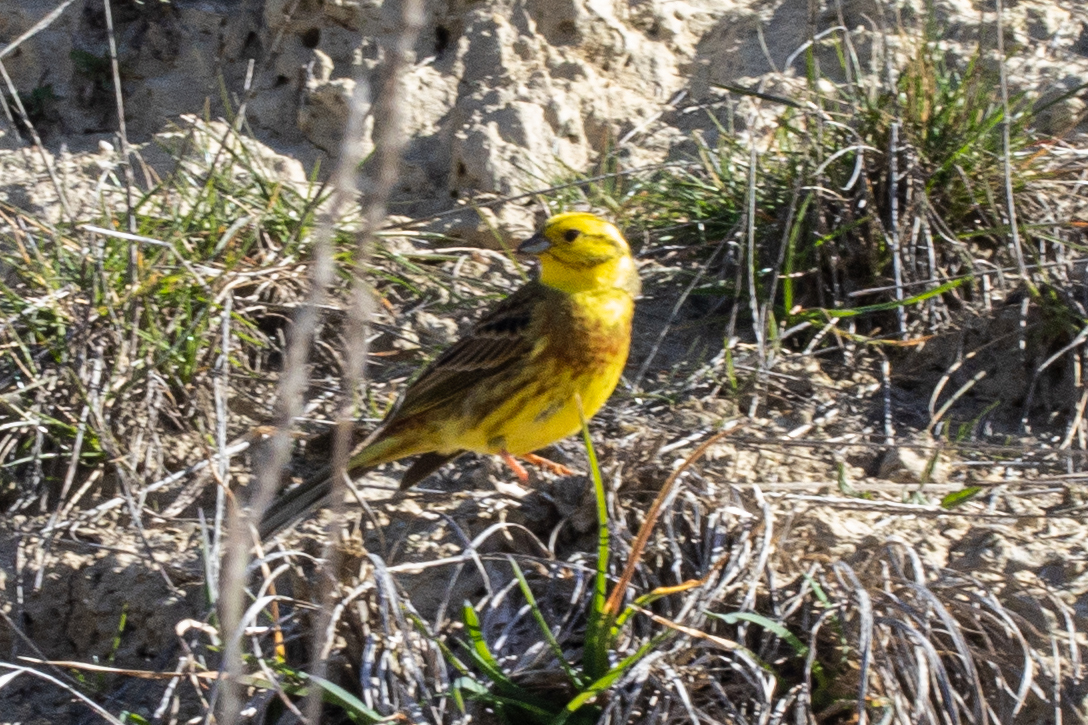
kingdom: Animalia
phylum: Chordata
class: Aves
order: Passeriformes
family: Emberizidae
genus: Emberiza
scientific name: Emberiza citrinella
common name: Yellowhammer
